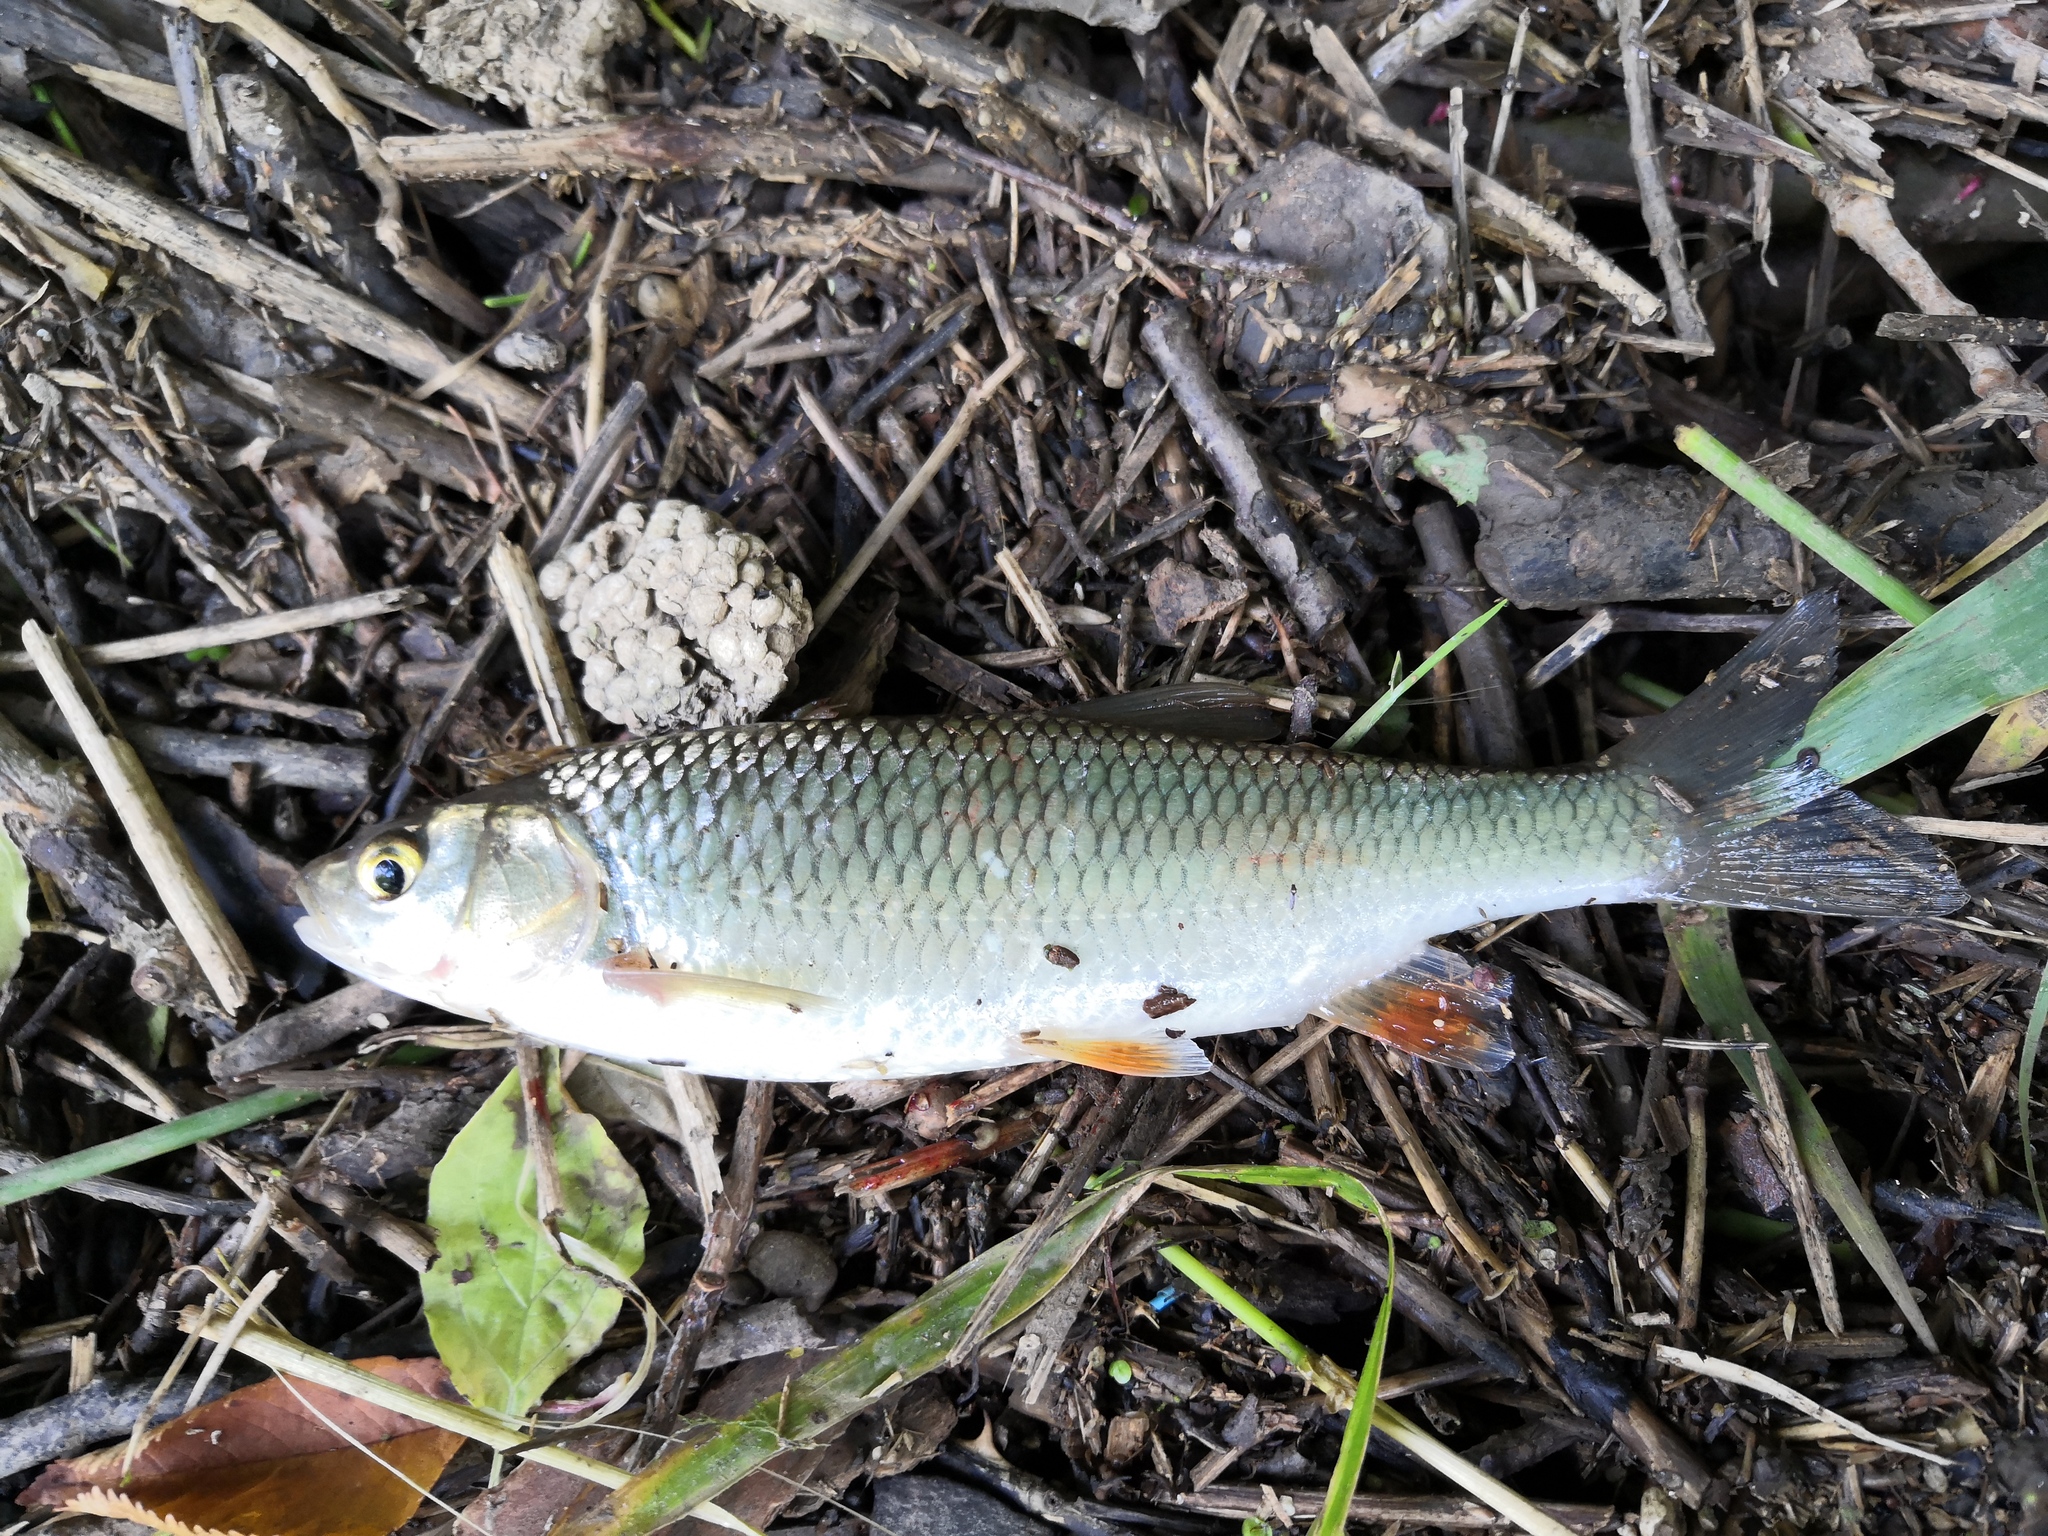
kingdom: Animalia
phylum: Chordata
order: Cypriniformes
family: Cyprinidae
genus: Squalius
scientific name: Squalius cephalus
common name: Chub
